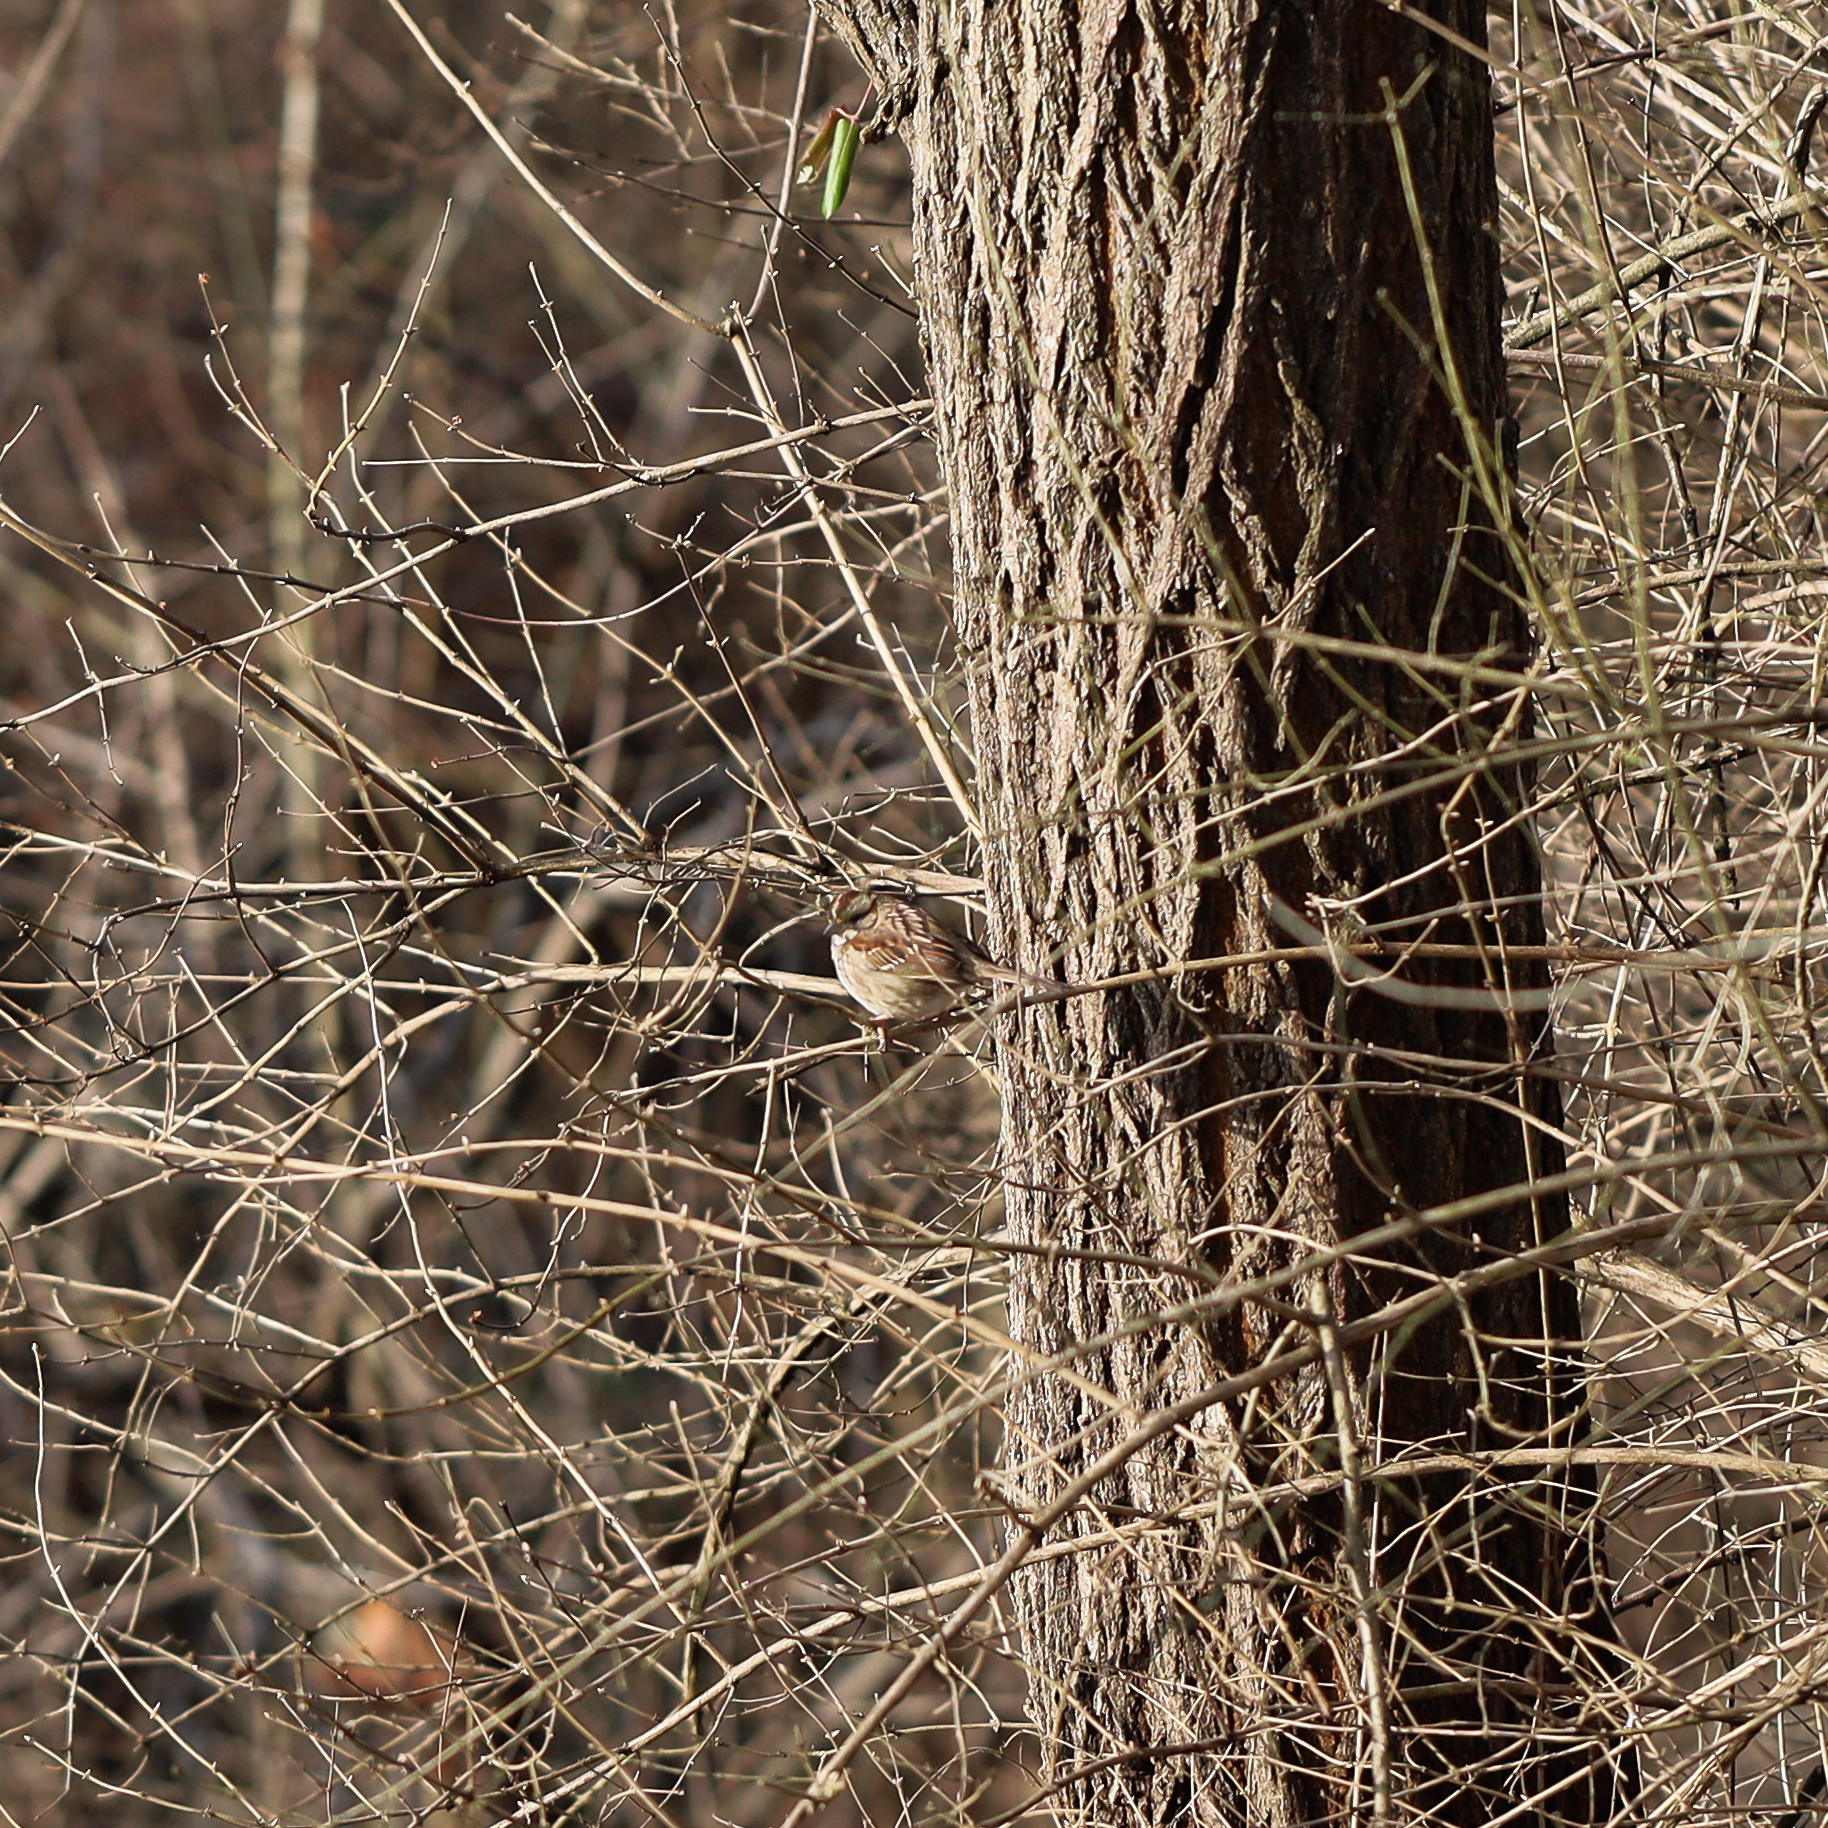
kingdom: Animalia
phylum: Chordata
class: Aves
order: Passeriformes
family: Passerellidae
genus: Zonotrichia
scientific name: Zonotrichia albicollis
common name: White-throated sparrow
